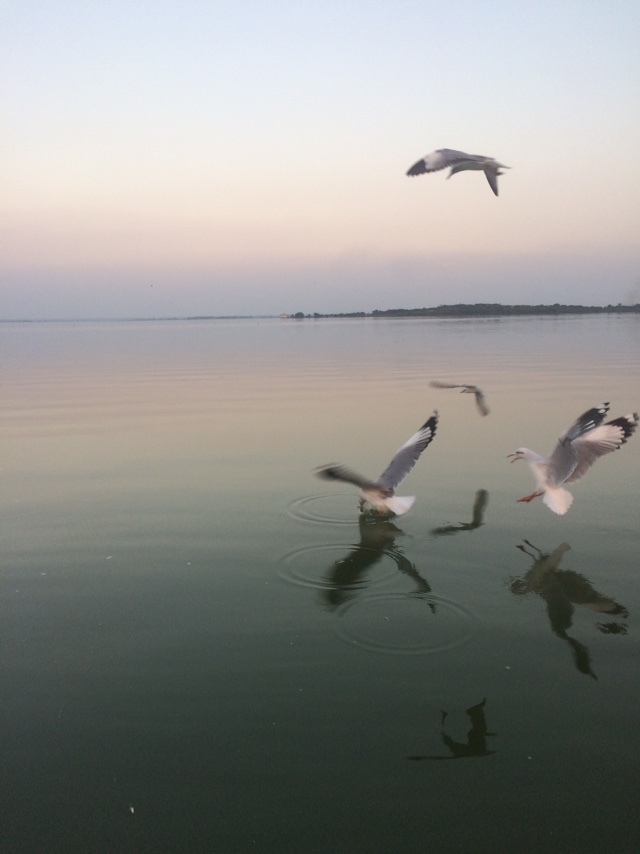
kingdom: Animalia
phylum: Chordata
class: Aves
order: Charadriiformes
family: Laridae
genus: Chroicocephalus
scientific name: Chroicocephalus brunnicephalus
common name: Brown-headed gull
